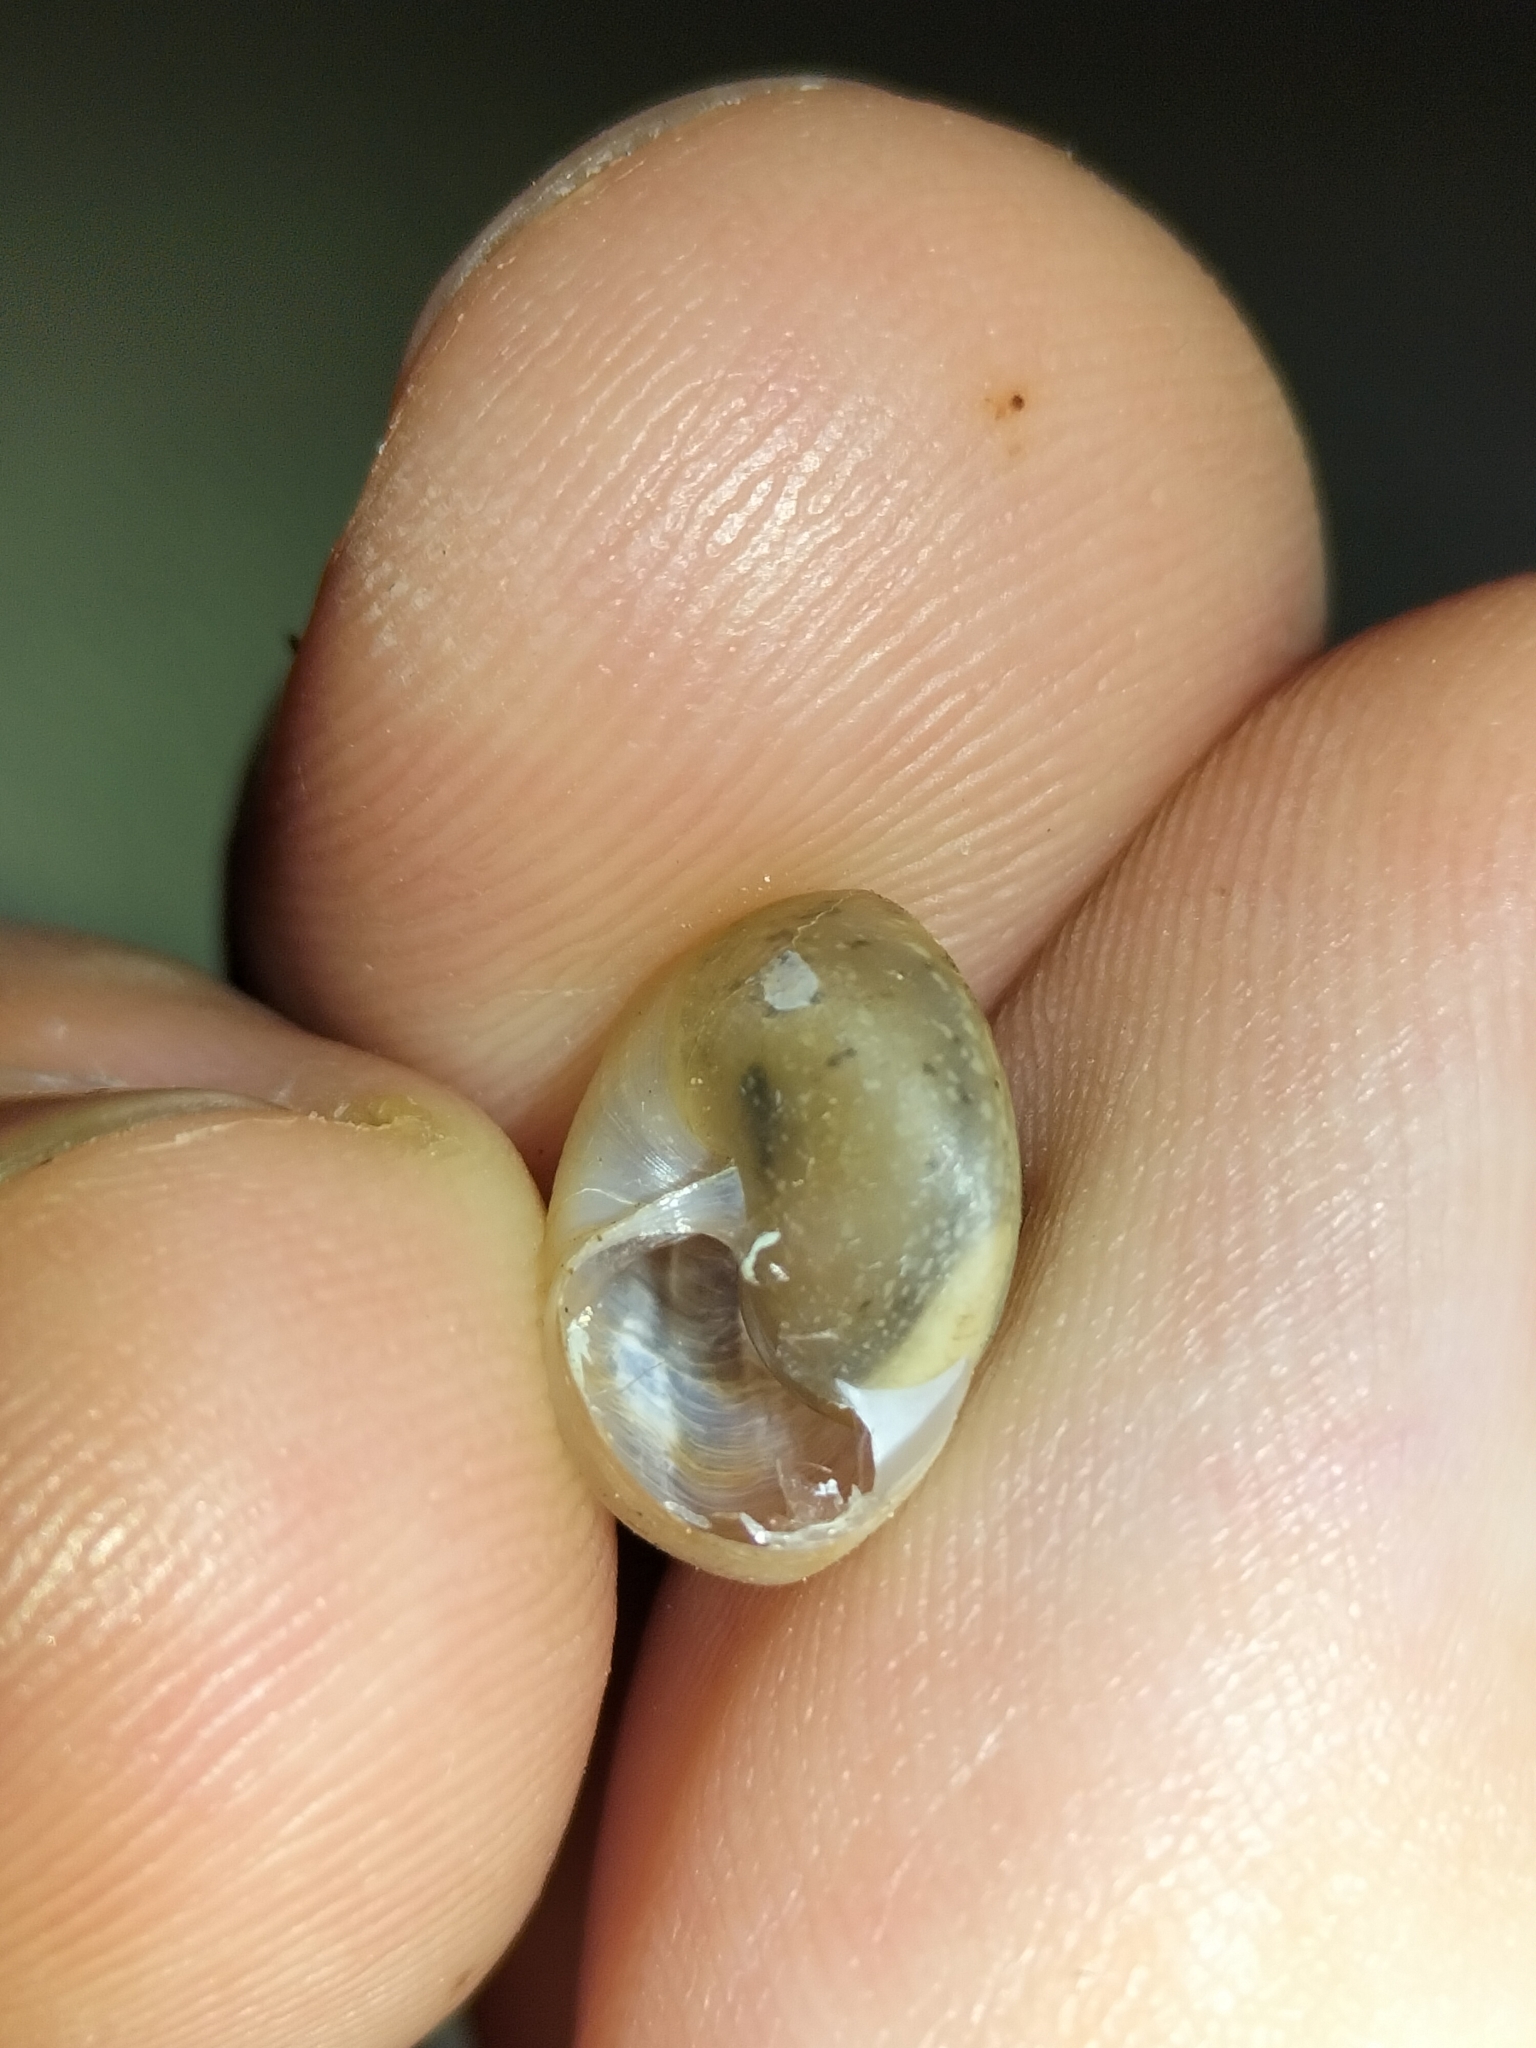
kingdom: Animalia
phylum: Mollusca
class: Gastropoda
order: Stylommatophora
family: Camaenidae
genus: Bradybaena
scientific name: Bradybaena similaris
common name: Asian trampsnail
